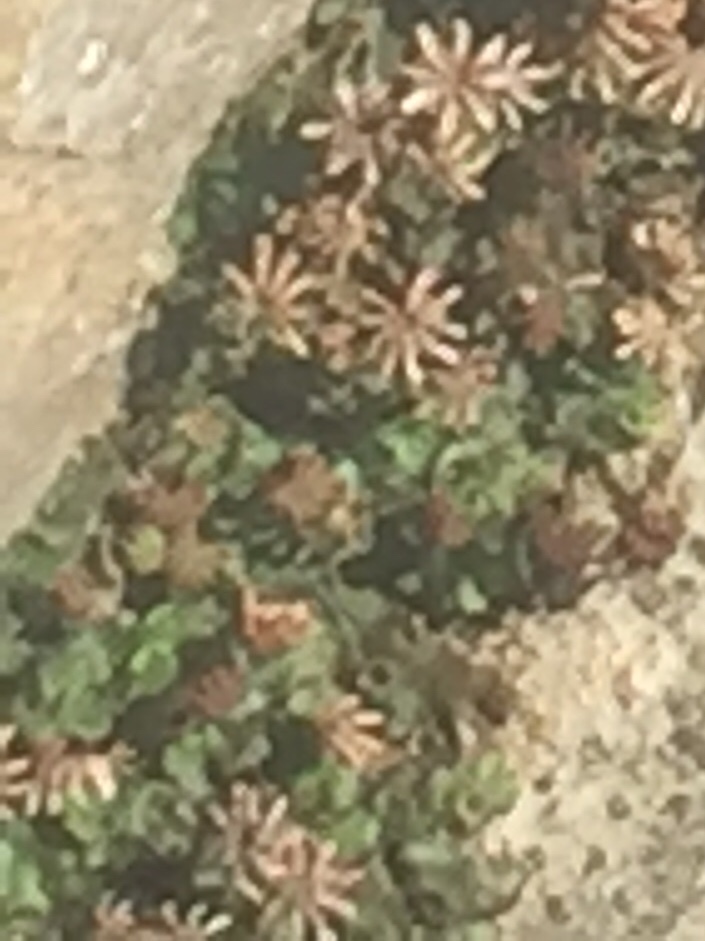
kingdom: Plantae
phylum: Marchantiophyta
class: Marchantiopsida
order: Marchantiales
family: Marchantiaceae
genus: Marchantia
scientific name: Marchantia polymorpha
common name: Common liverwort
